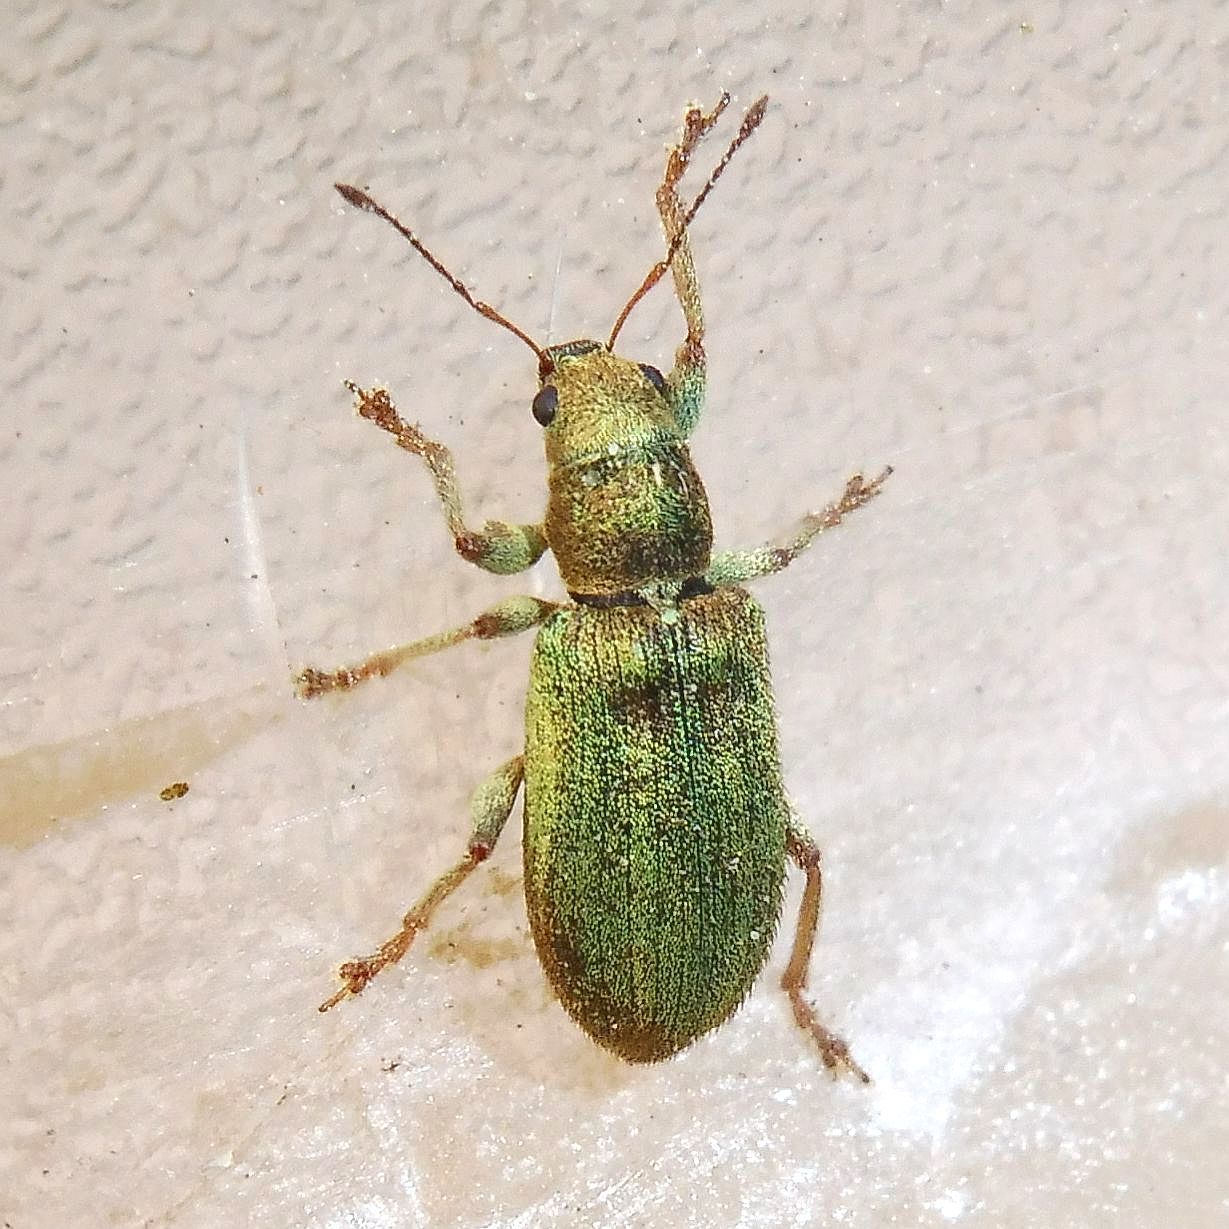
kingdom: Animalia
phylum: Arthropoda
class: Insecta
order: Coleoptera
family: Curculionidae
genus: Pachyrhinus
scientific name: Pachyrhinus lethierryi
